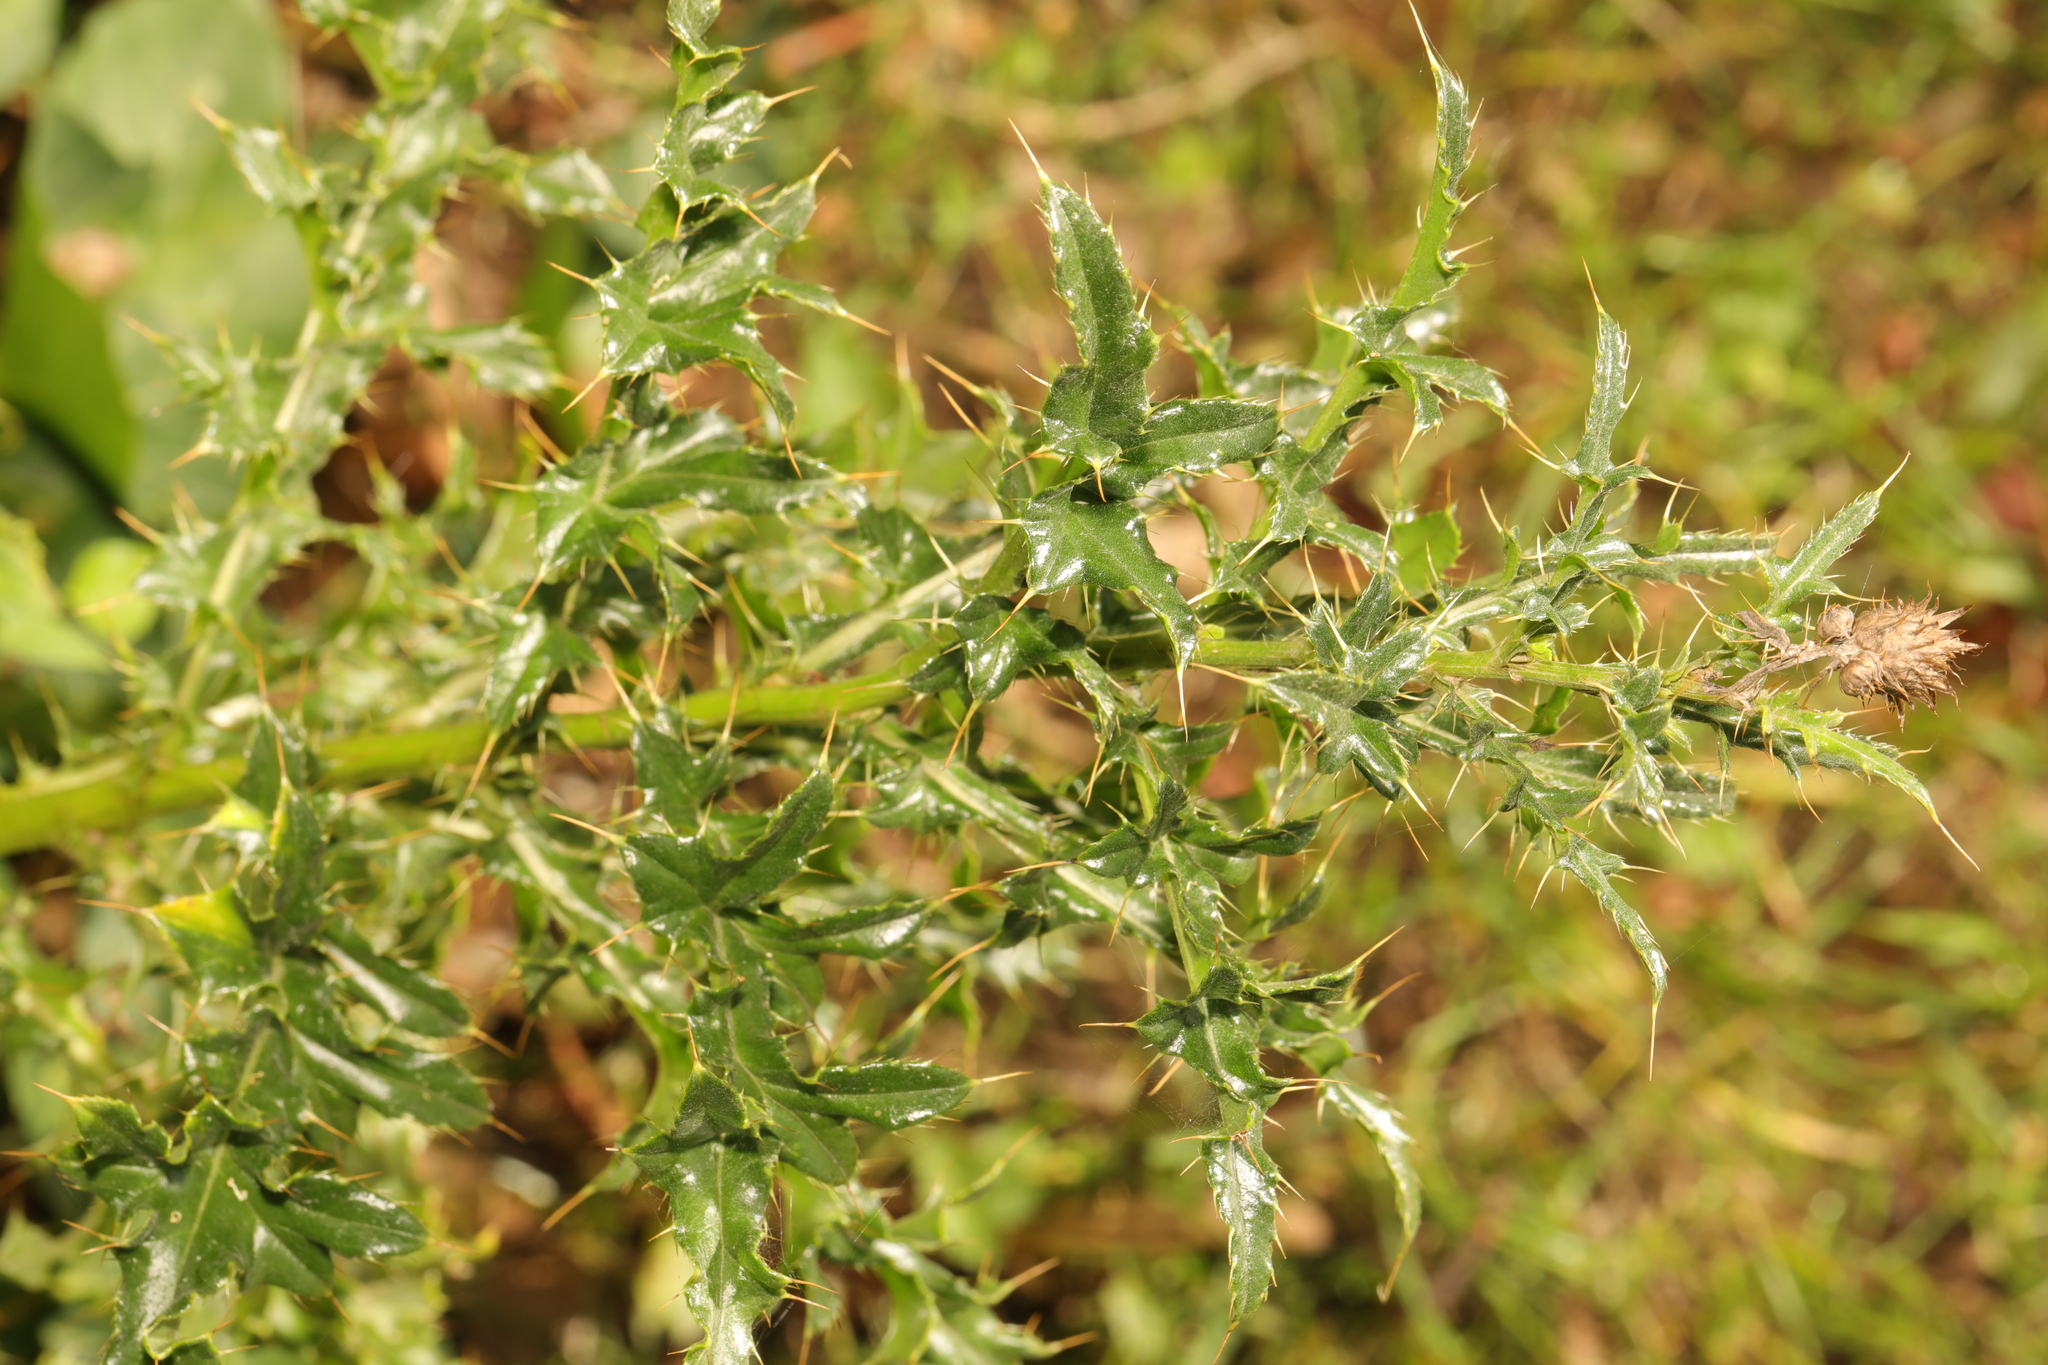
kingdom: Plantae
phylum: Tracheophyta
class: Magnoliopsida
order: Asterales
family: Asteraceae
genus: Cirsium
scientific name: Cirsium arvense
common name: Creeping thistle
